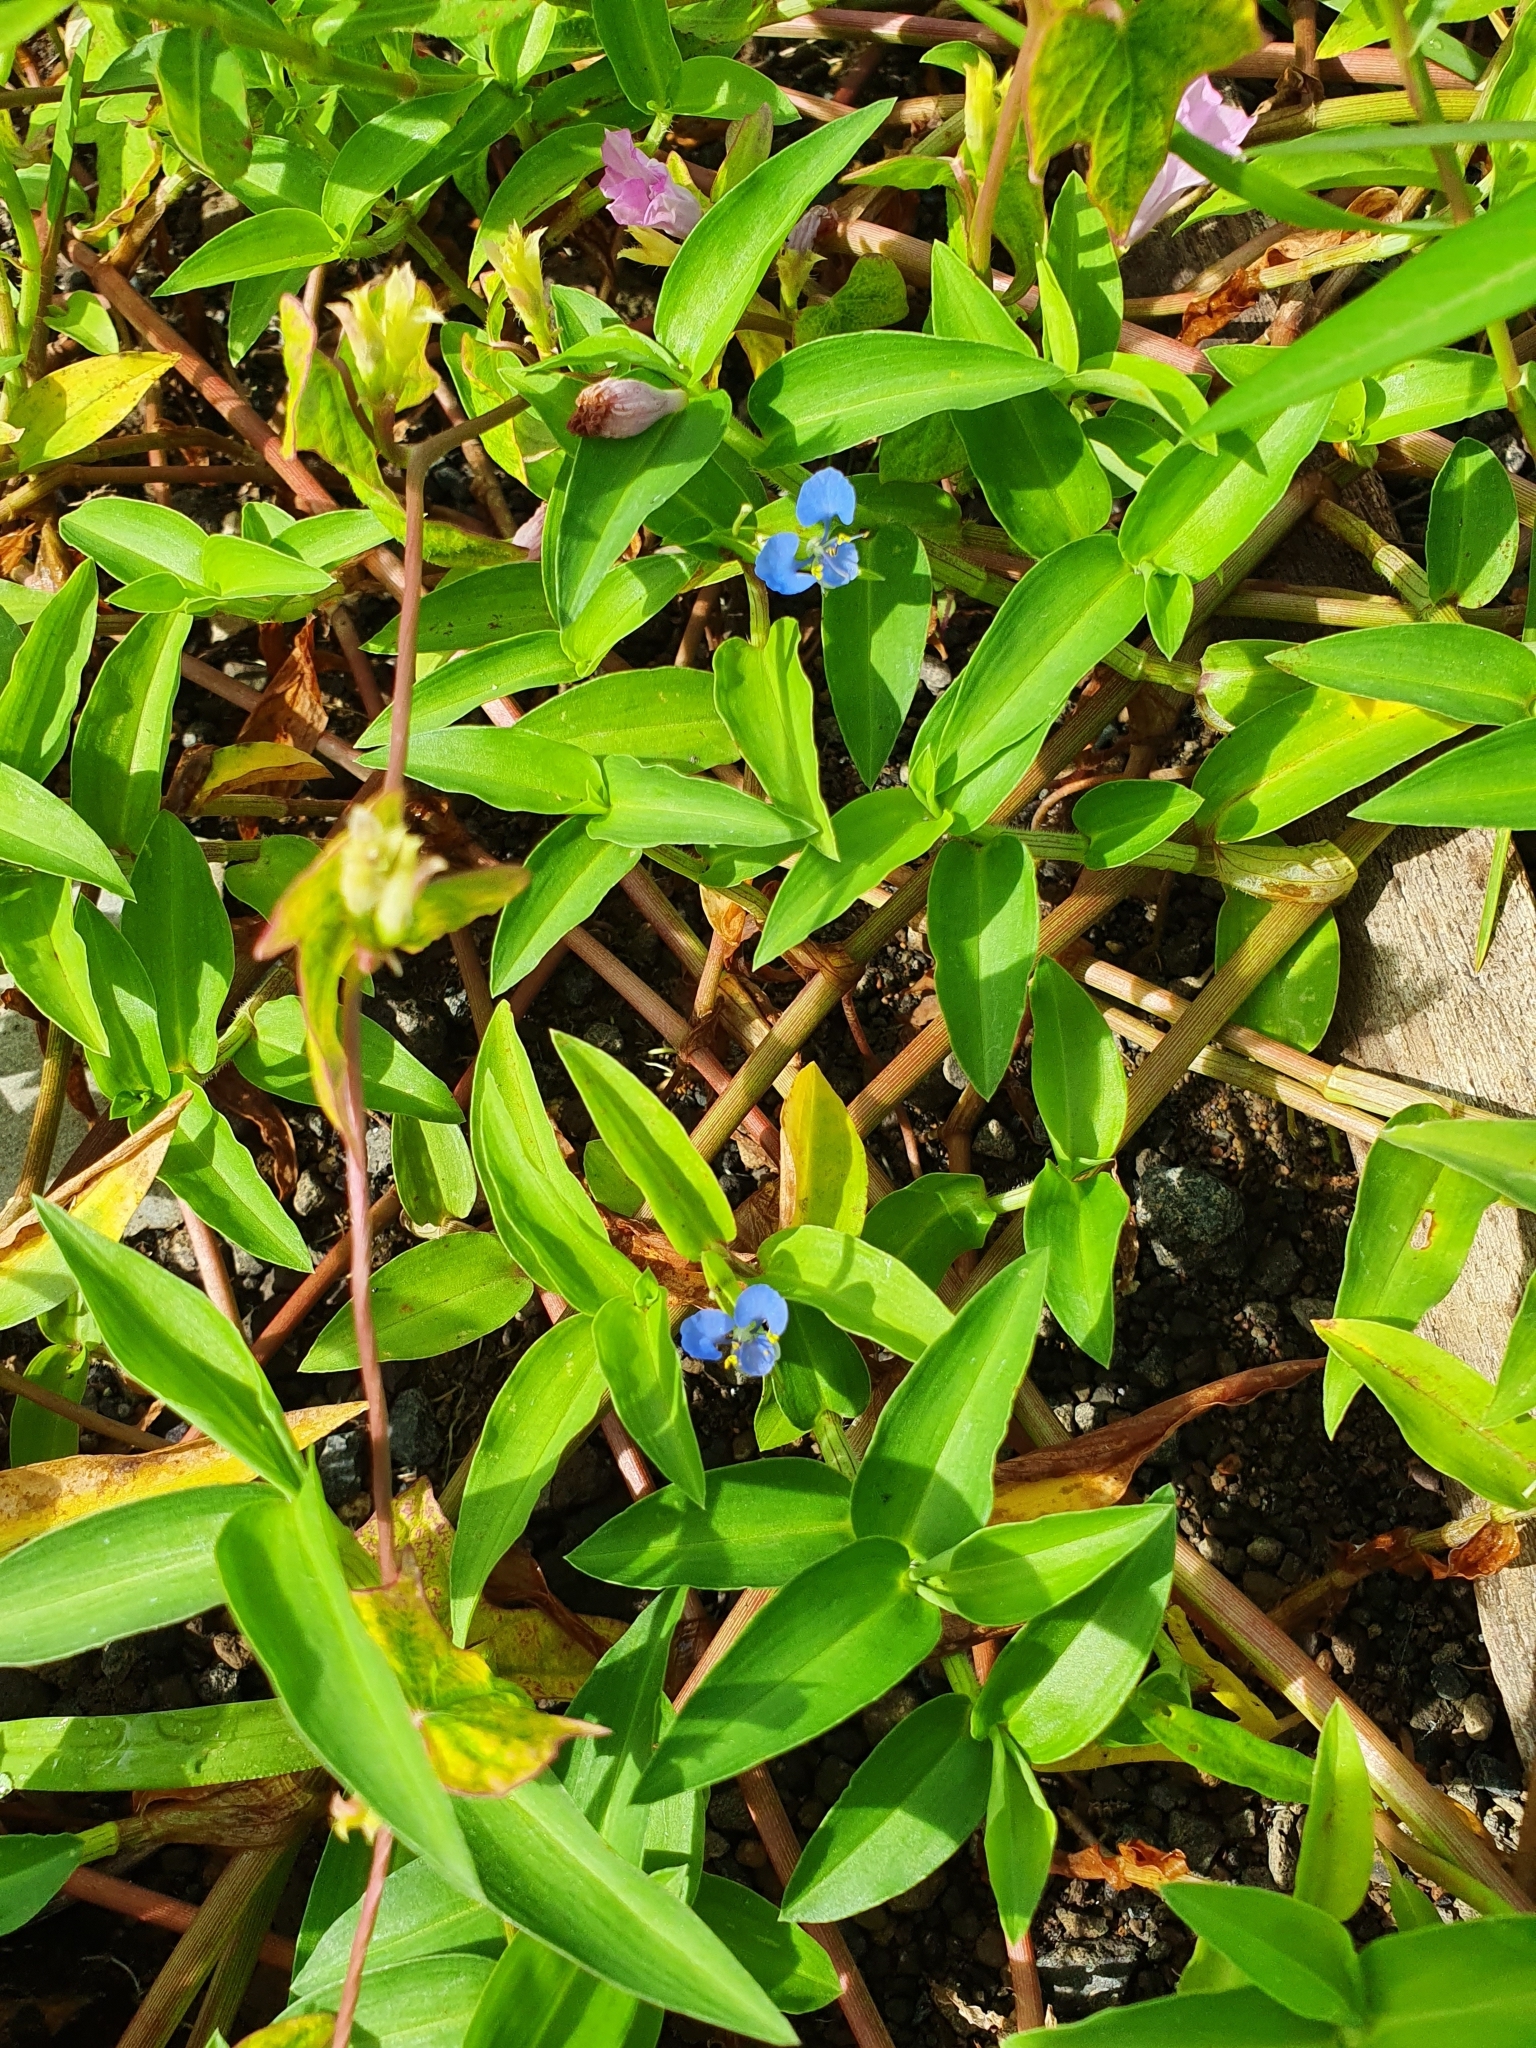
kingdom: Plantae
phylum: Tracheophyta
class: Liliopsida
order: Commelinales
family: Commelinaceae
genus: Commelina
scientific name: Commelina diffusa
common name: Climbing dayflower
